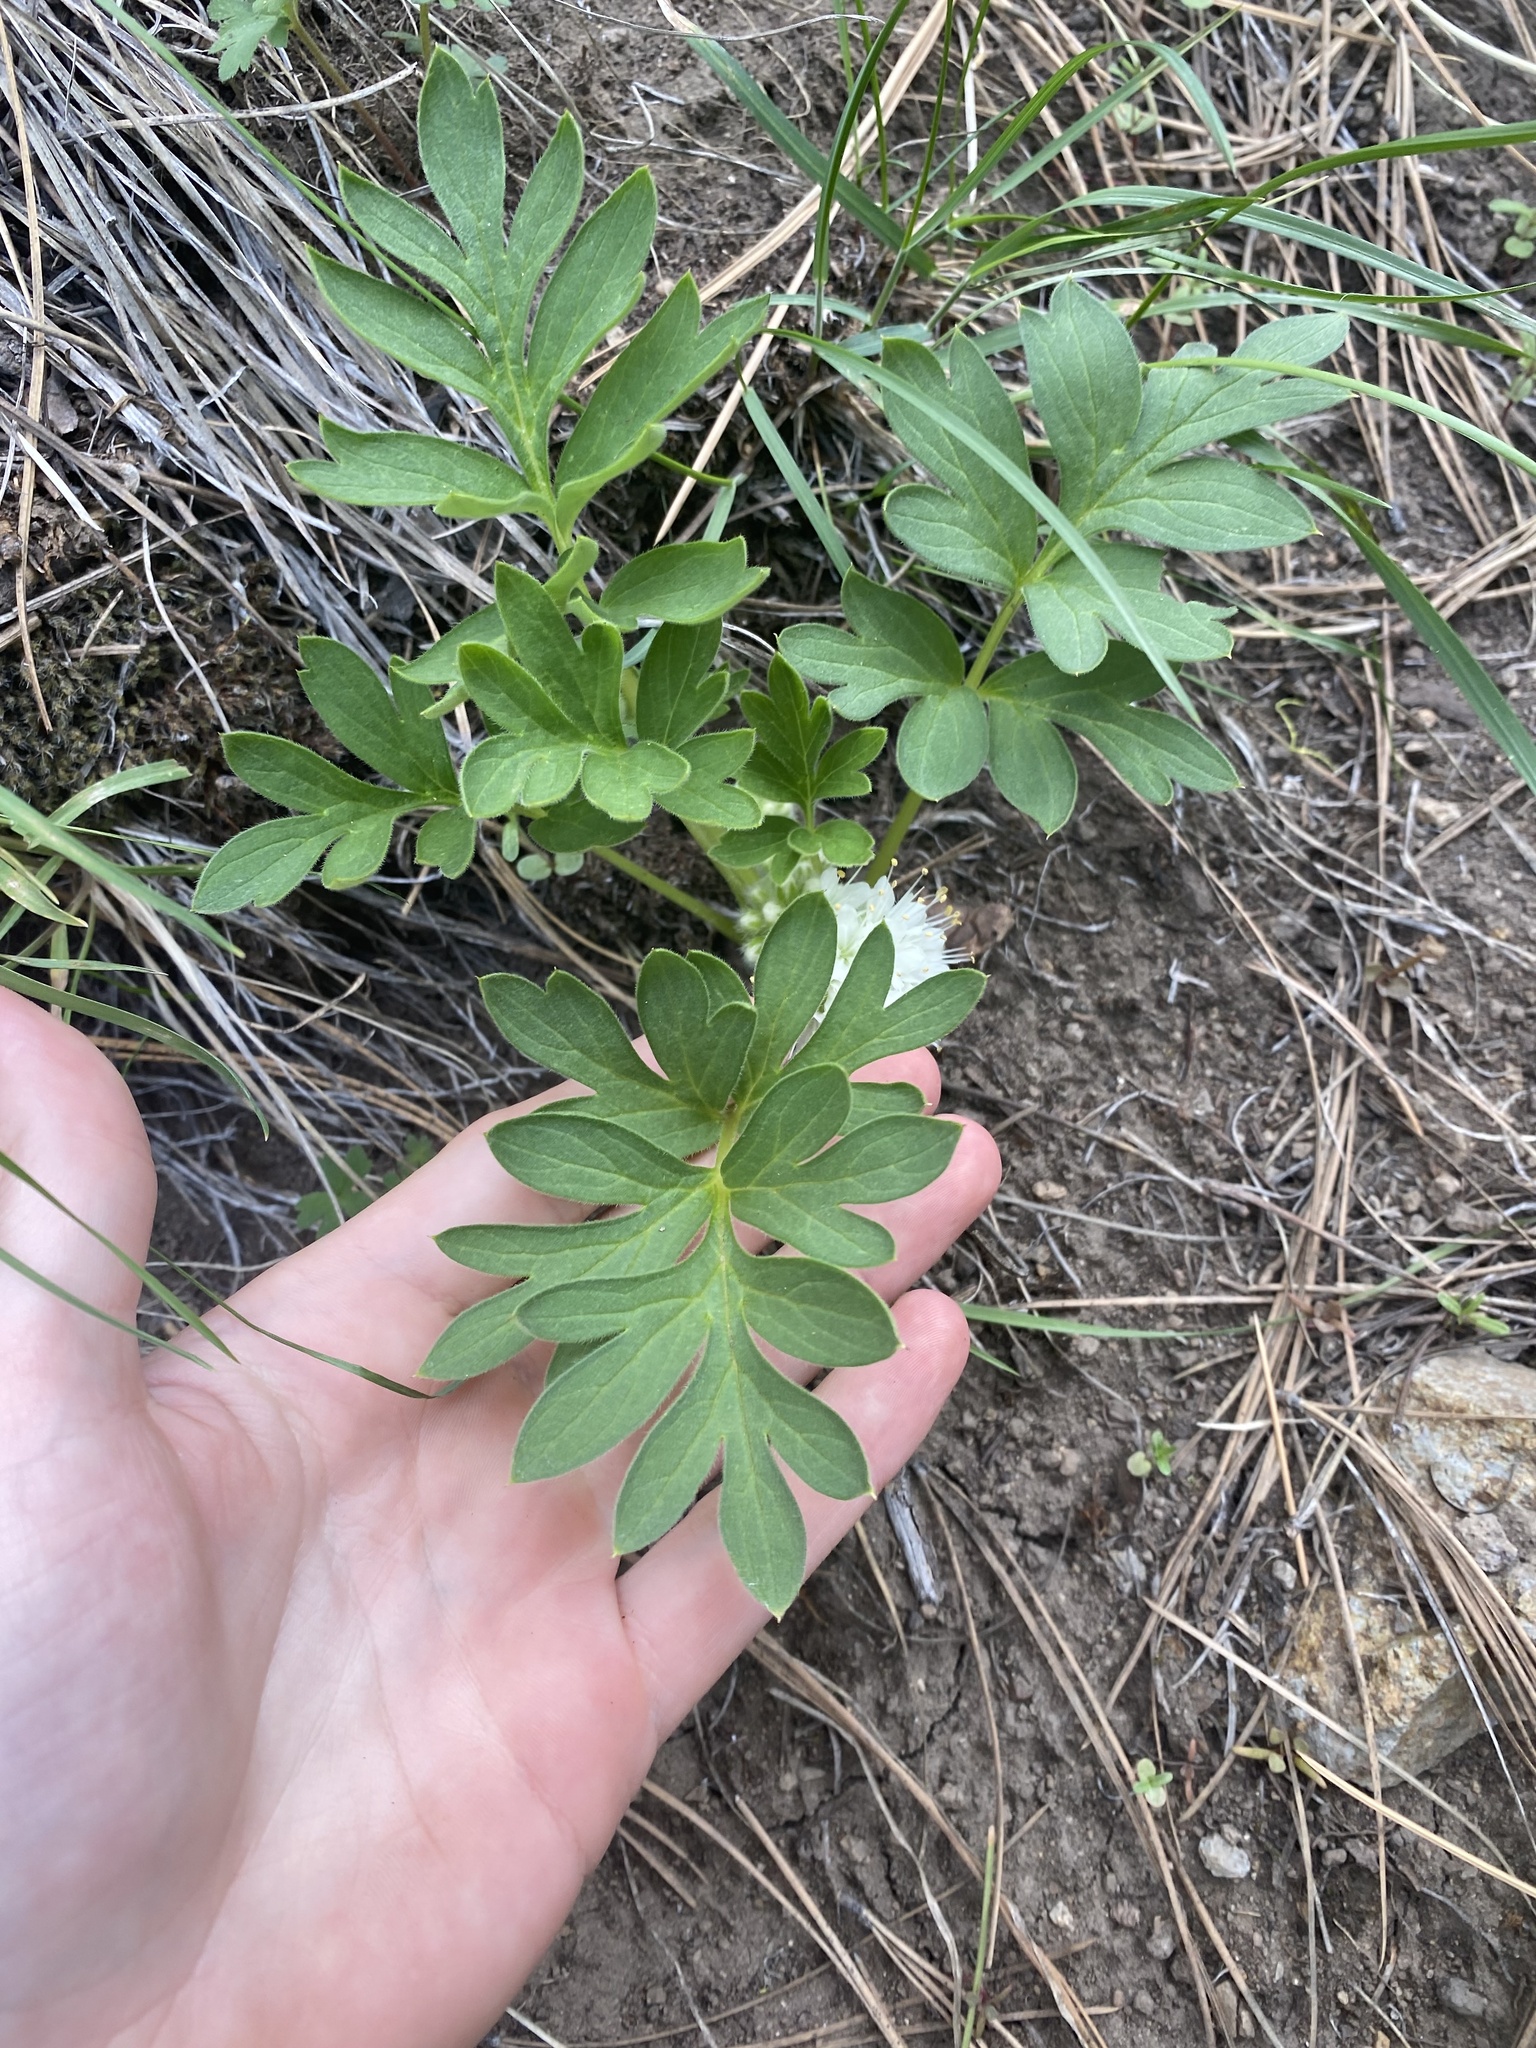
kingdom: Plantae
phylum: Tracheophyta
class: Magnoliopsida
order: Boraginales
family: Hydrophyllaceae
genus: Hydrophyllum
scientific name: Hydrophyllum alpestre
